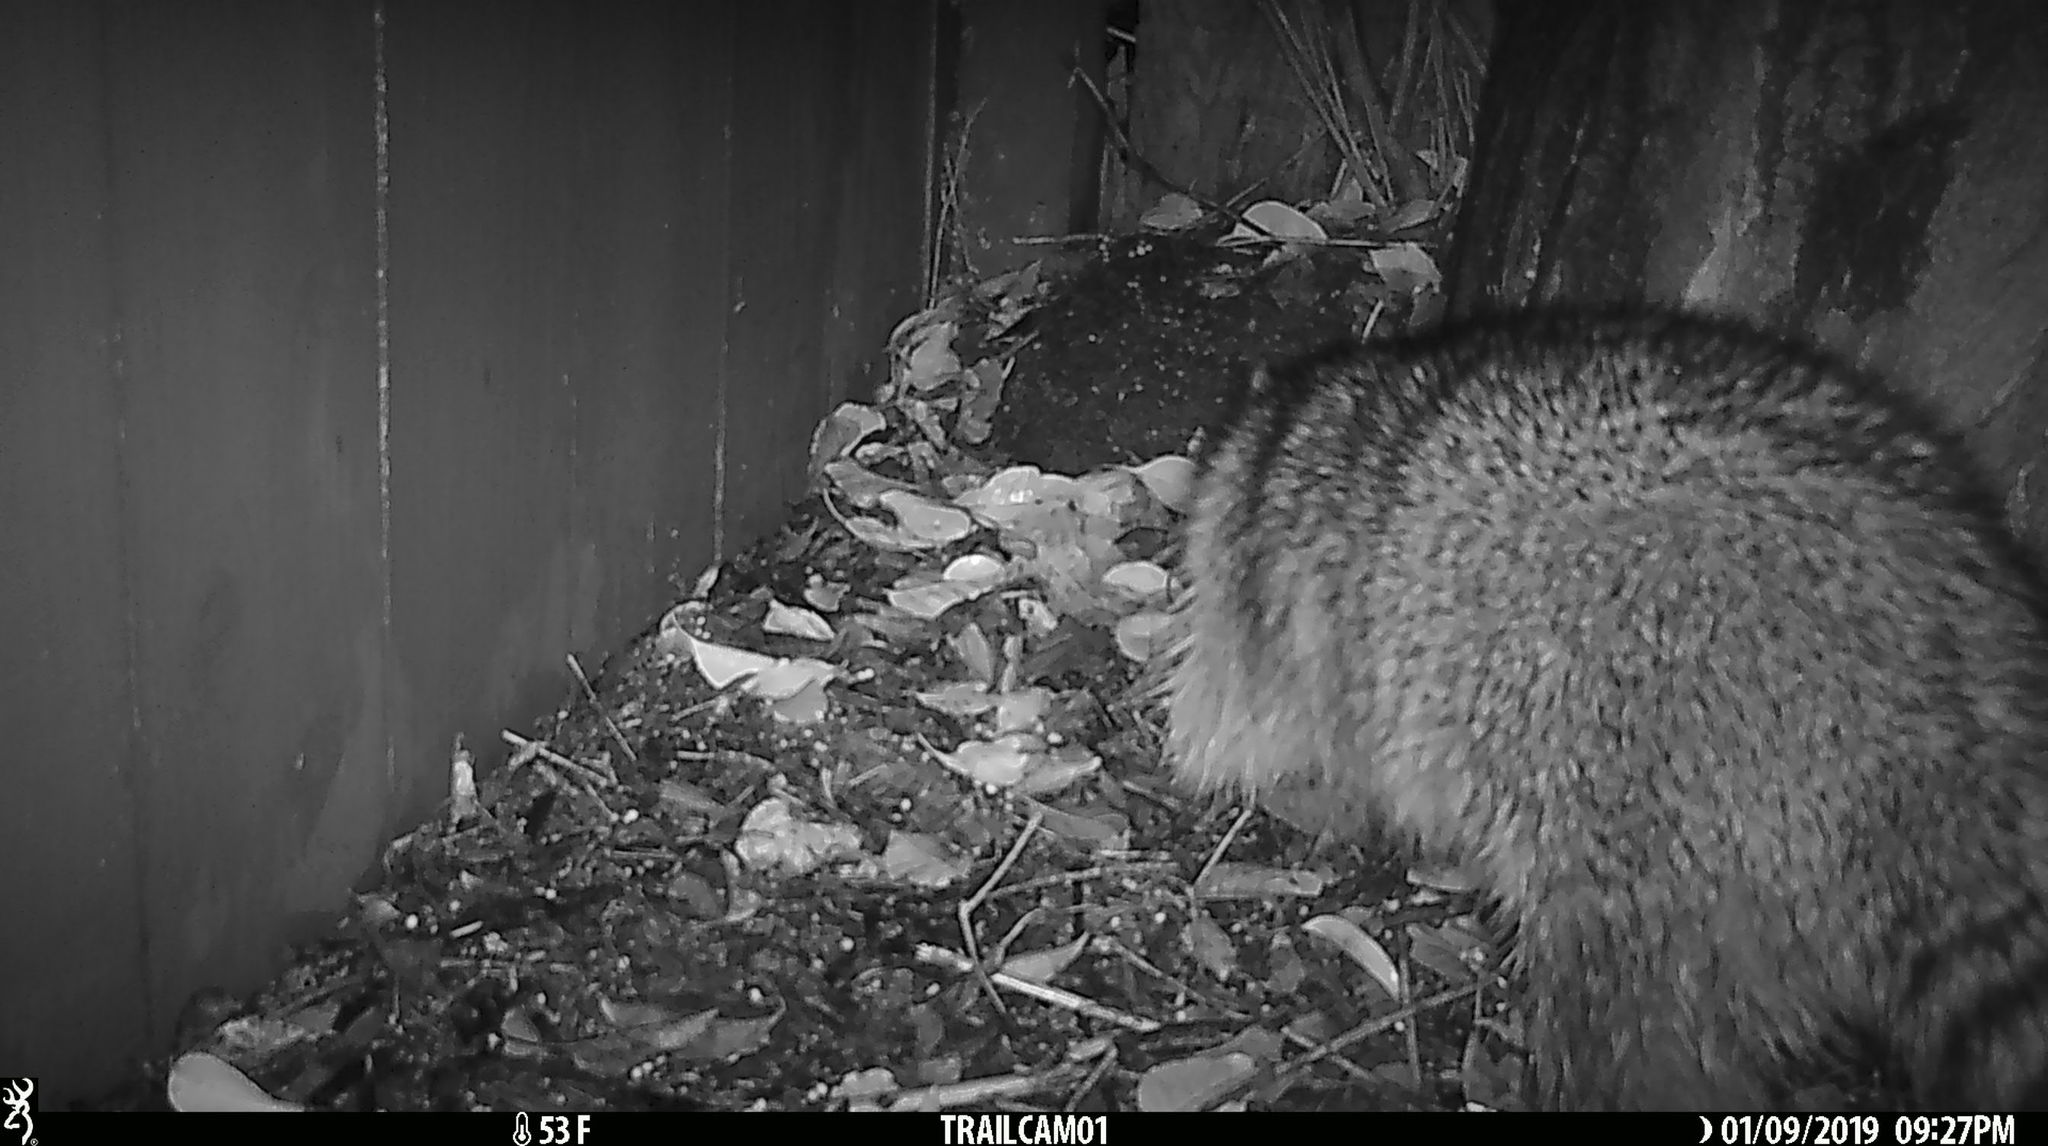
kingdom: Animalia
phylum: Chordata
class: Mammalia
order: Carnivora
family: Procyonidae
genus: Procyon
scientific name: Procyon lotor
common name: Raccoon
